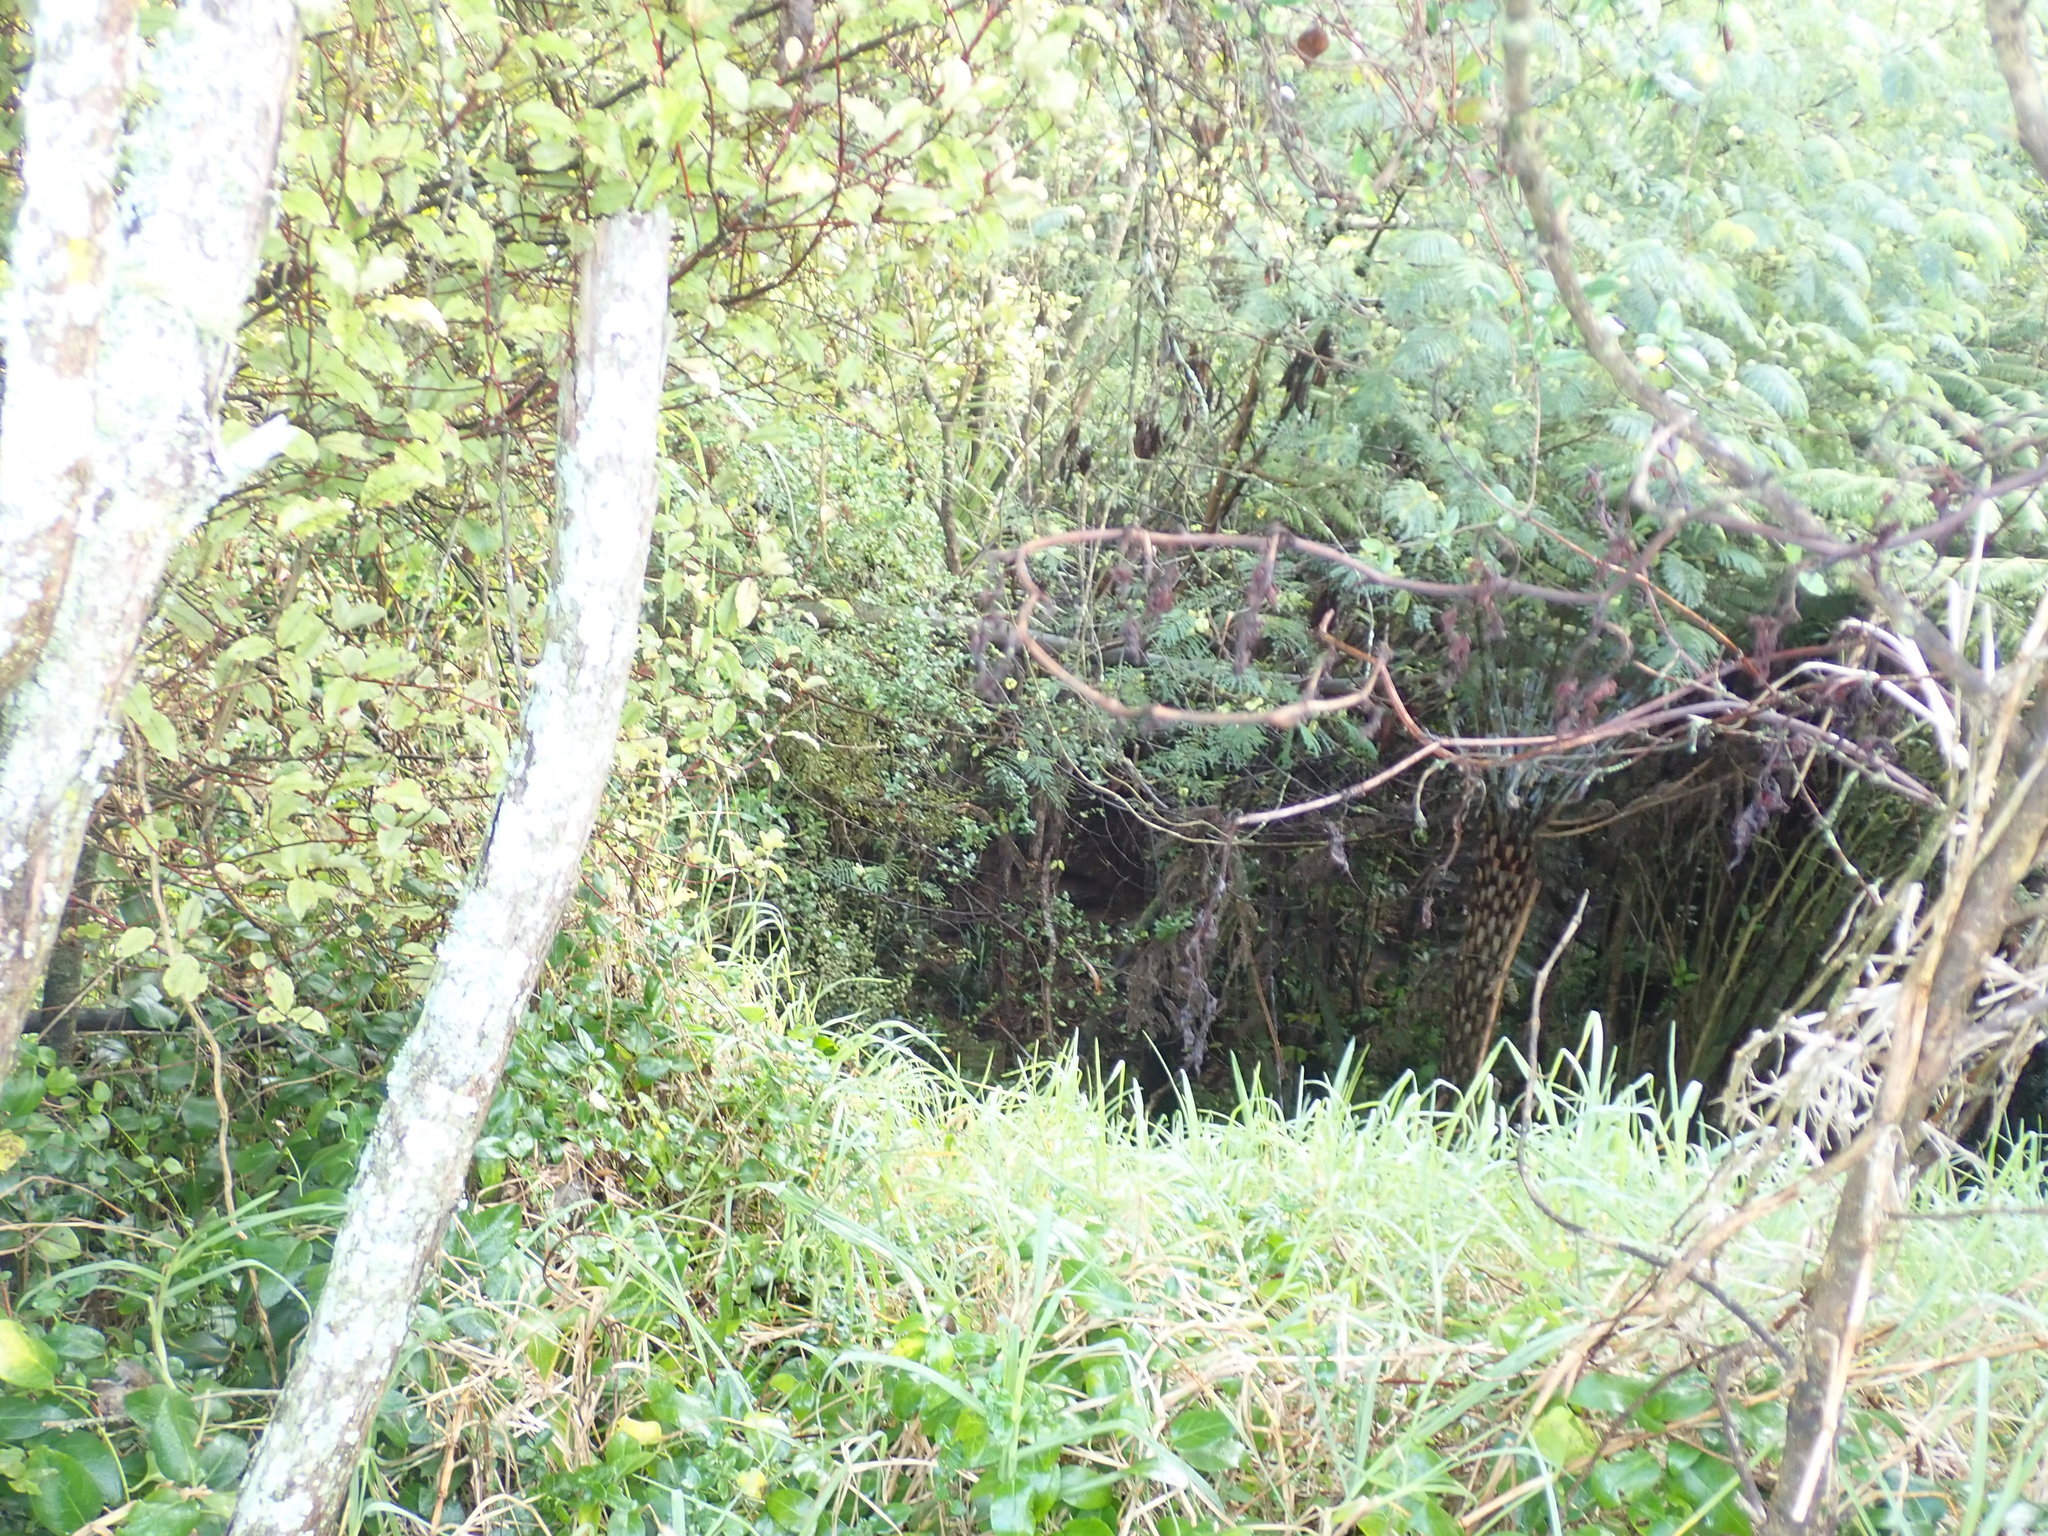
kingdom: Plantae
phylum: Tracheophyta
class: Magnoliopsida
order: Ericales
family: Primulaceae
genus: Myrsine
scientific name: Myrsine australis
